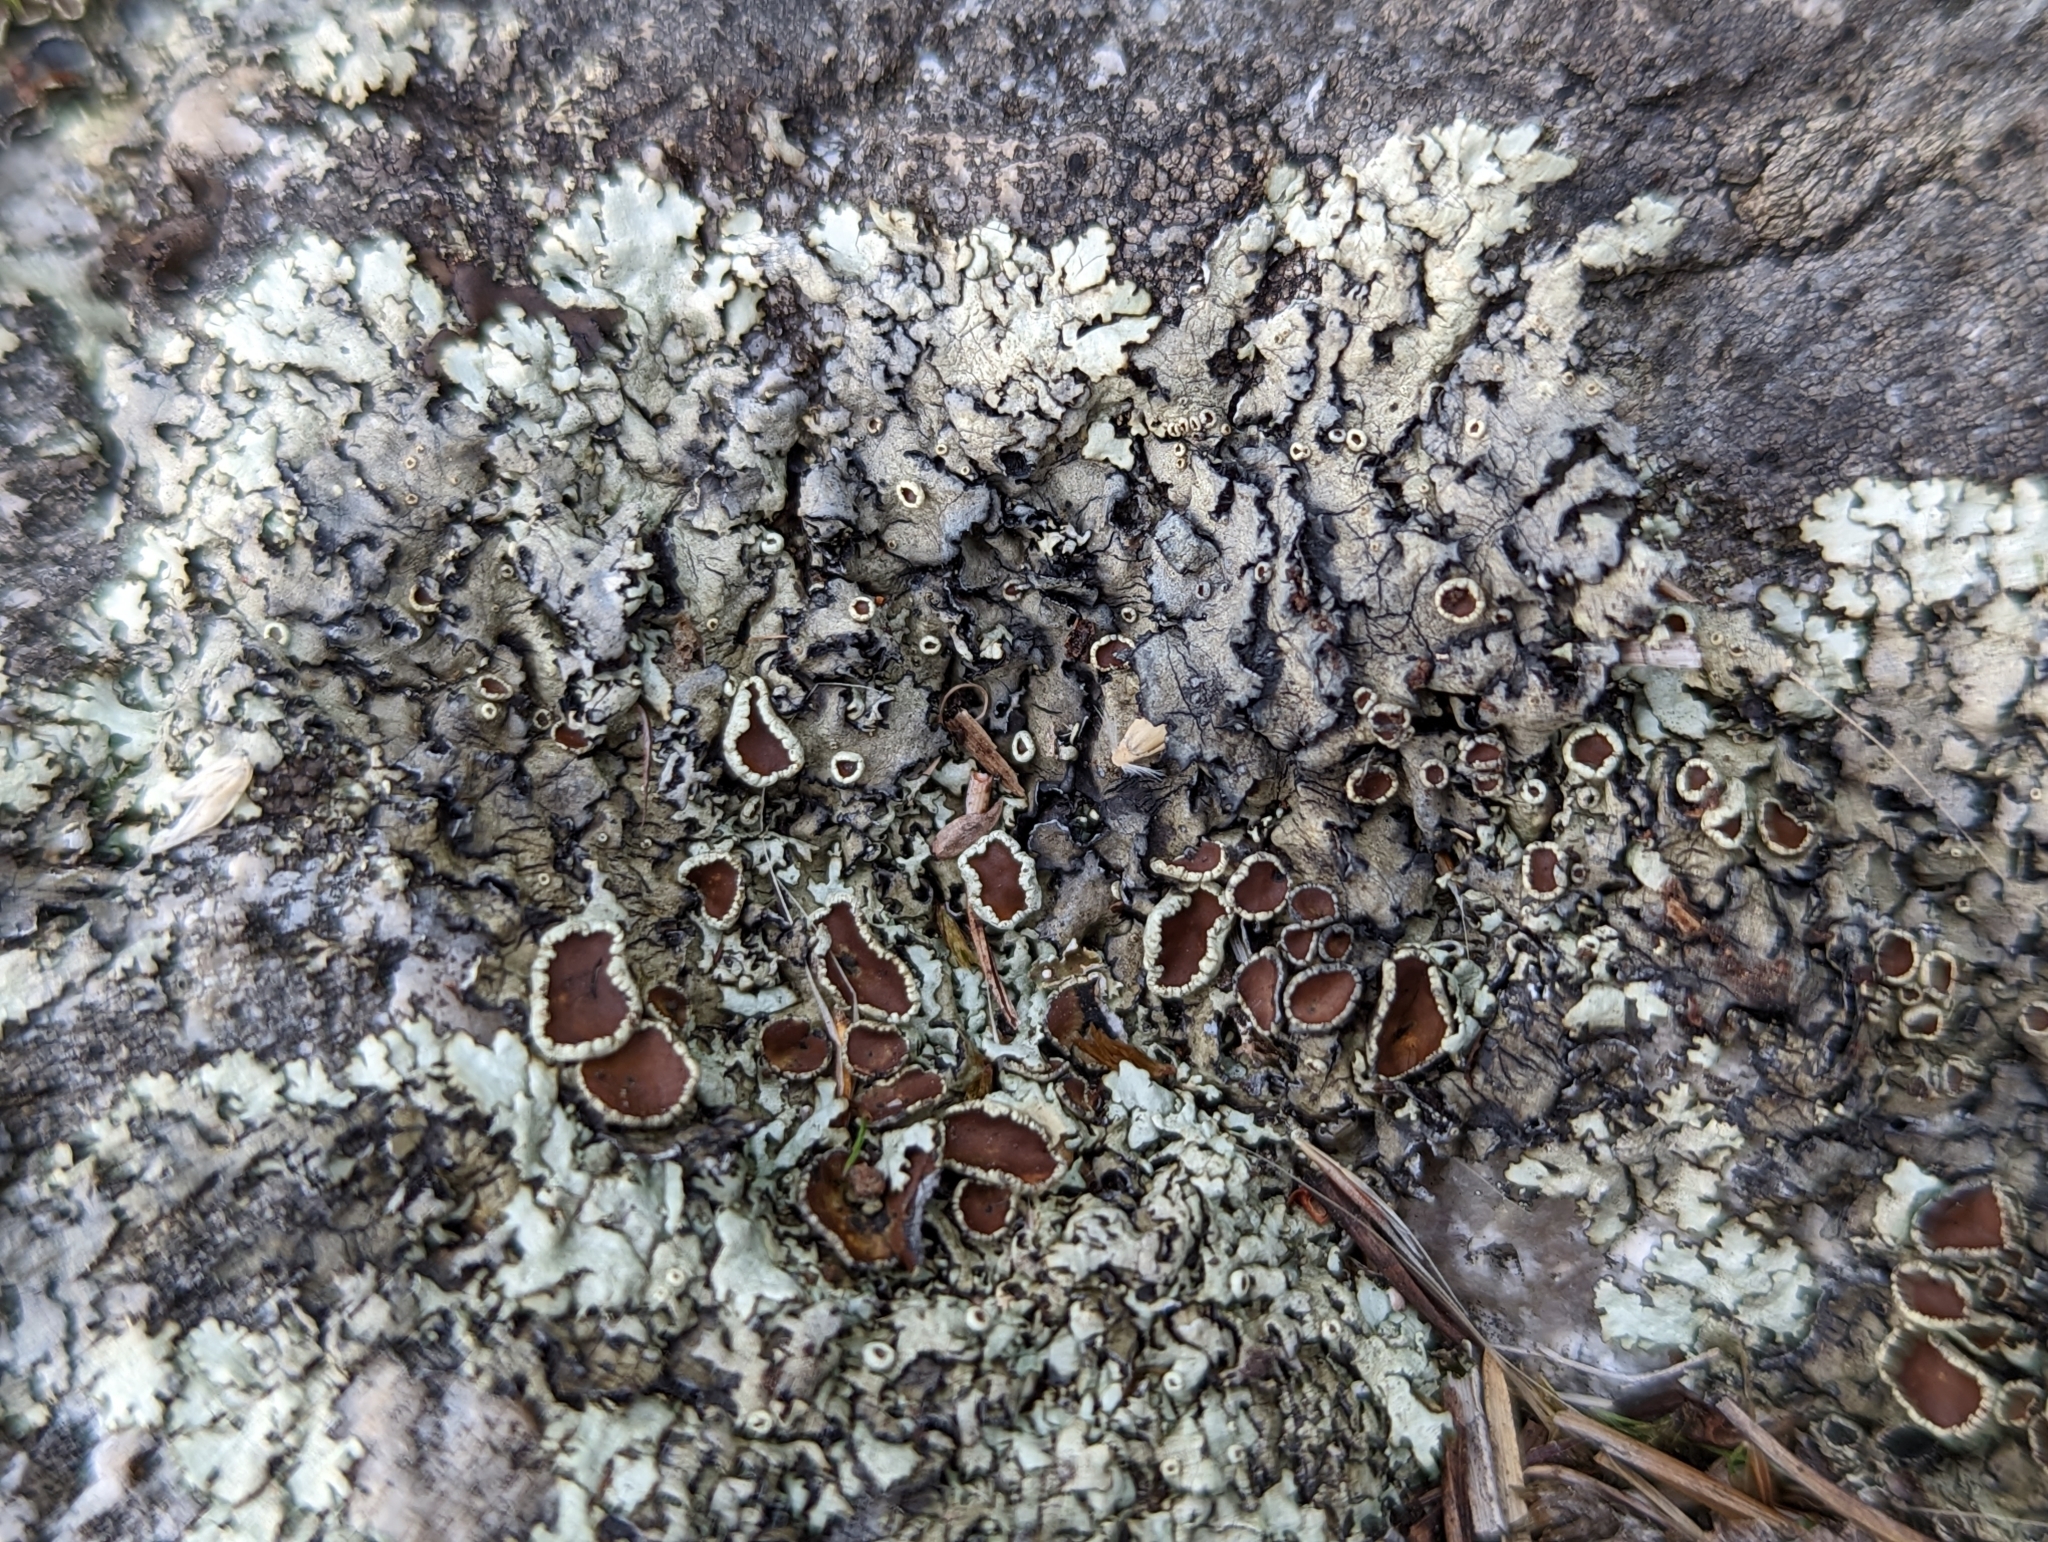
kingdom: Fungi
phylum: Ascomycota
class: Lecanoromycetes
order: Lecanorales
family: Parmeliaceae
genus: Xanthoparmelia
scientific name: Xanthoparmelia cumberlandia
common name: Cumberland rock shield
